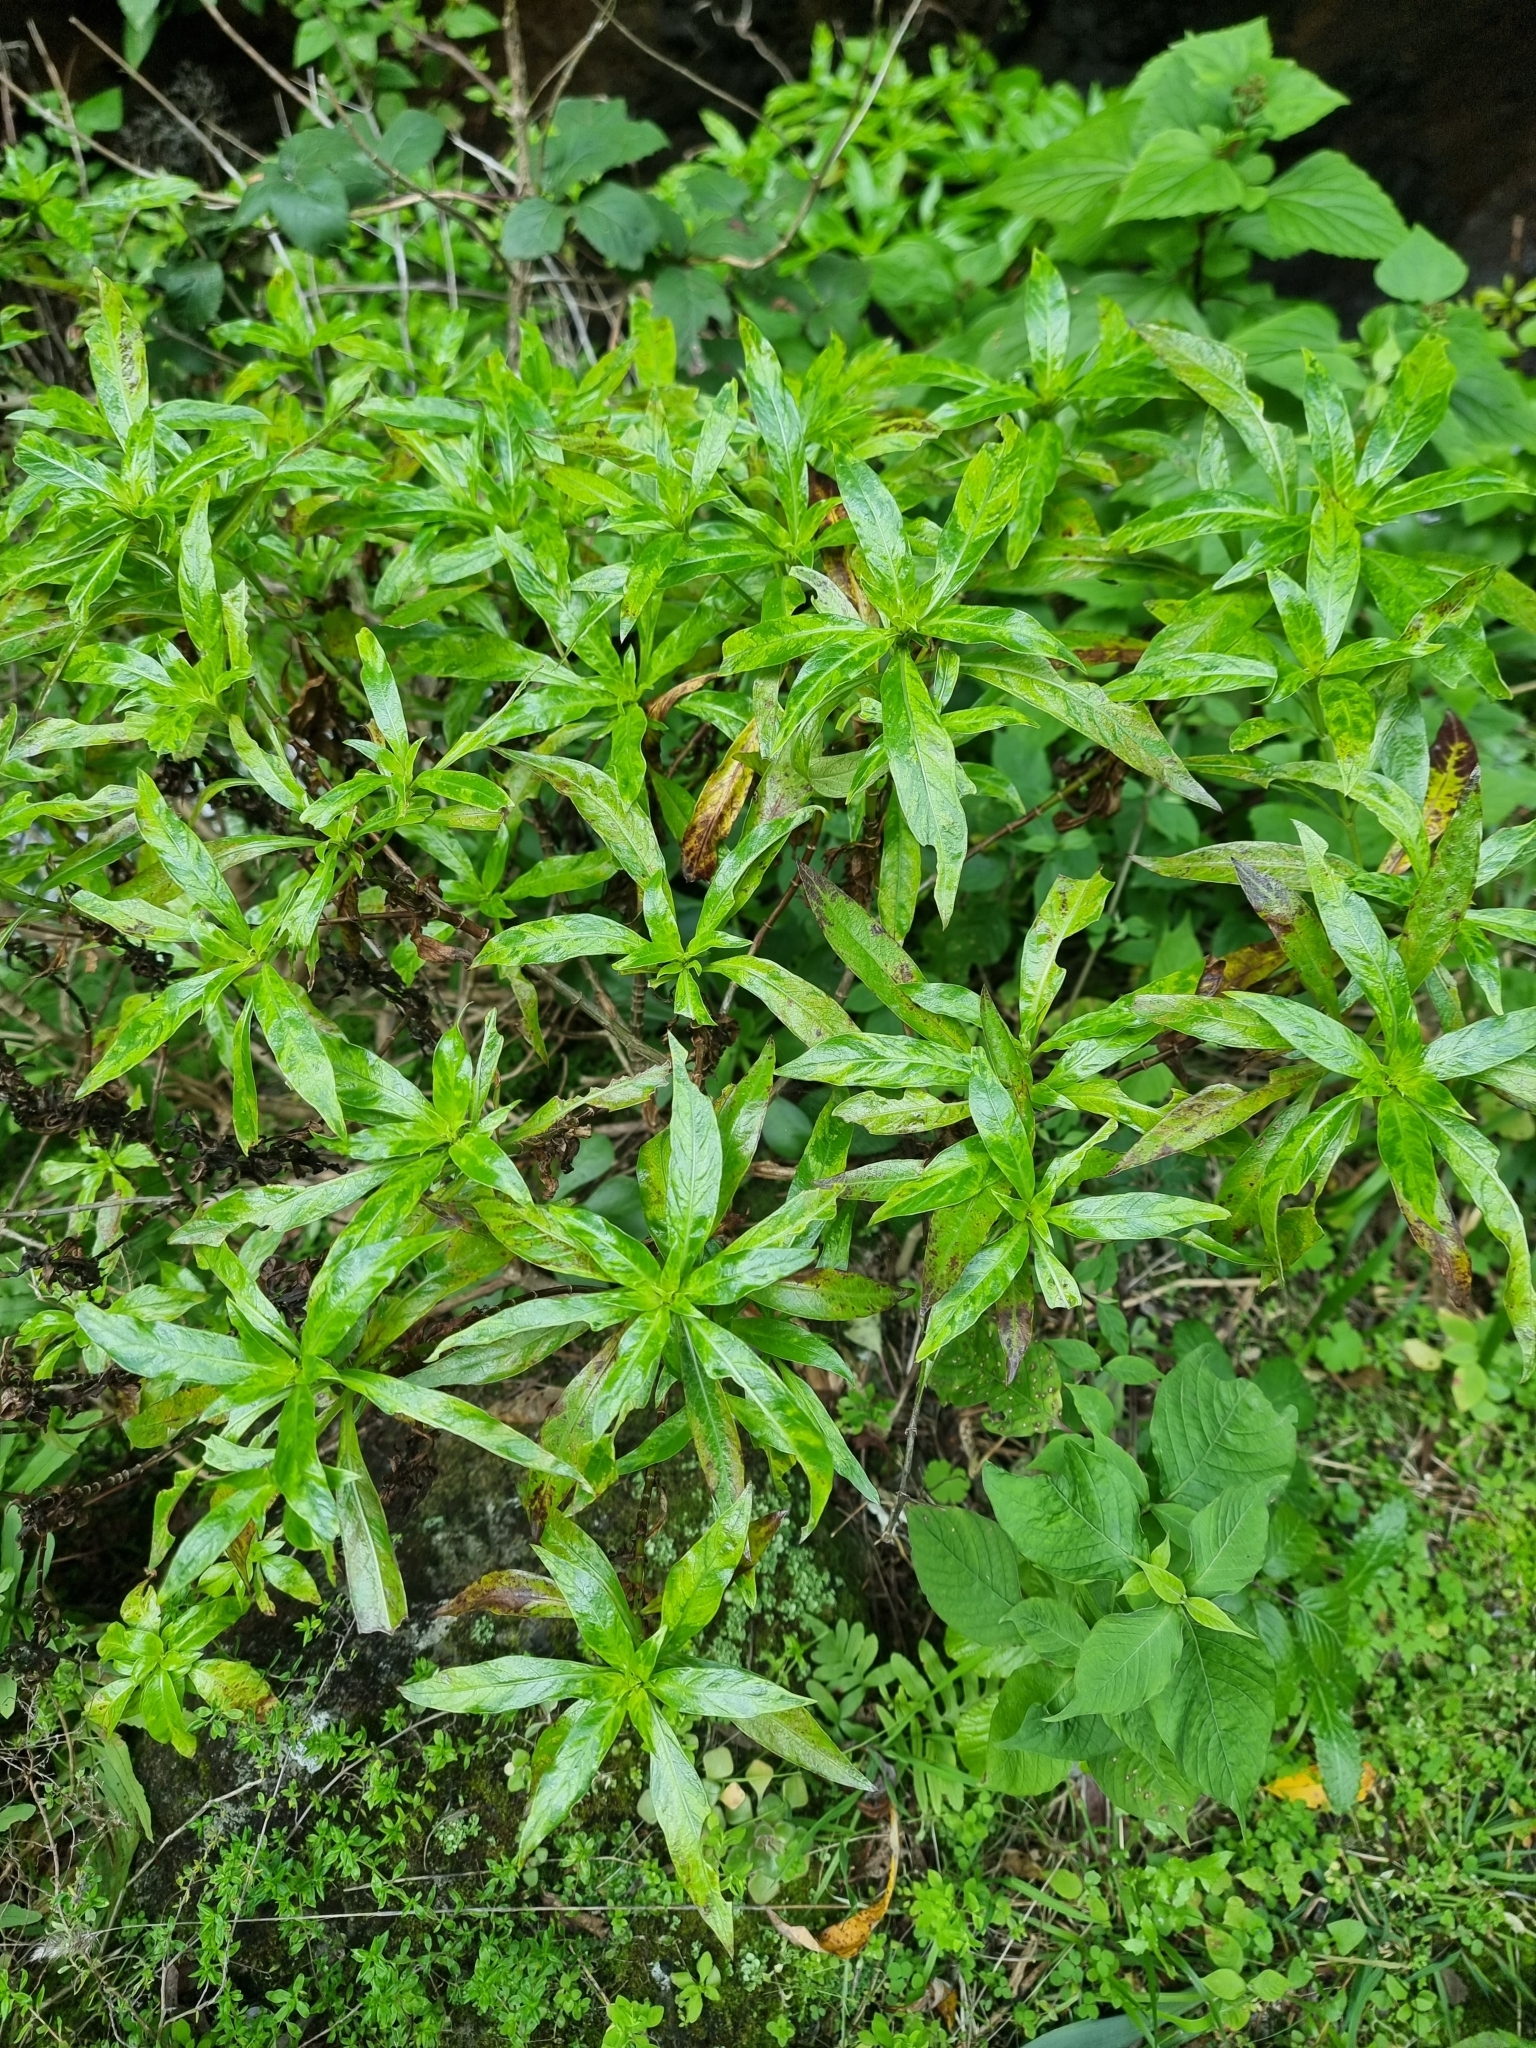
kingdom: Plantae
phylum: Tracheophyta
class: Magnoliopsida
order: Gentianales
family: Rubiaceae
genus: Phyllis
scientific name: Phyllis nobla
